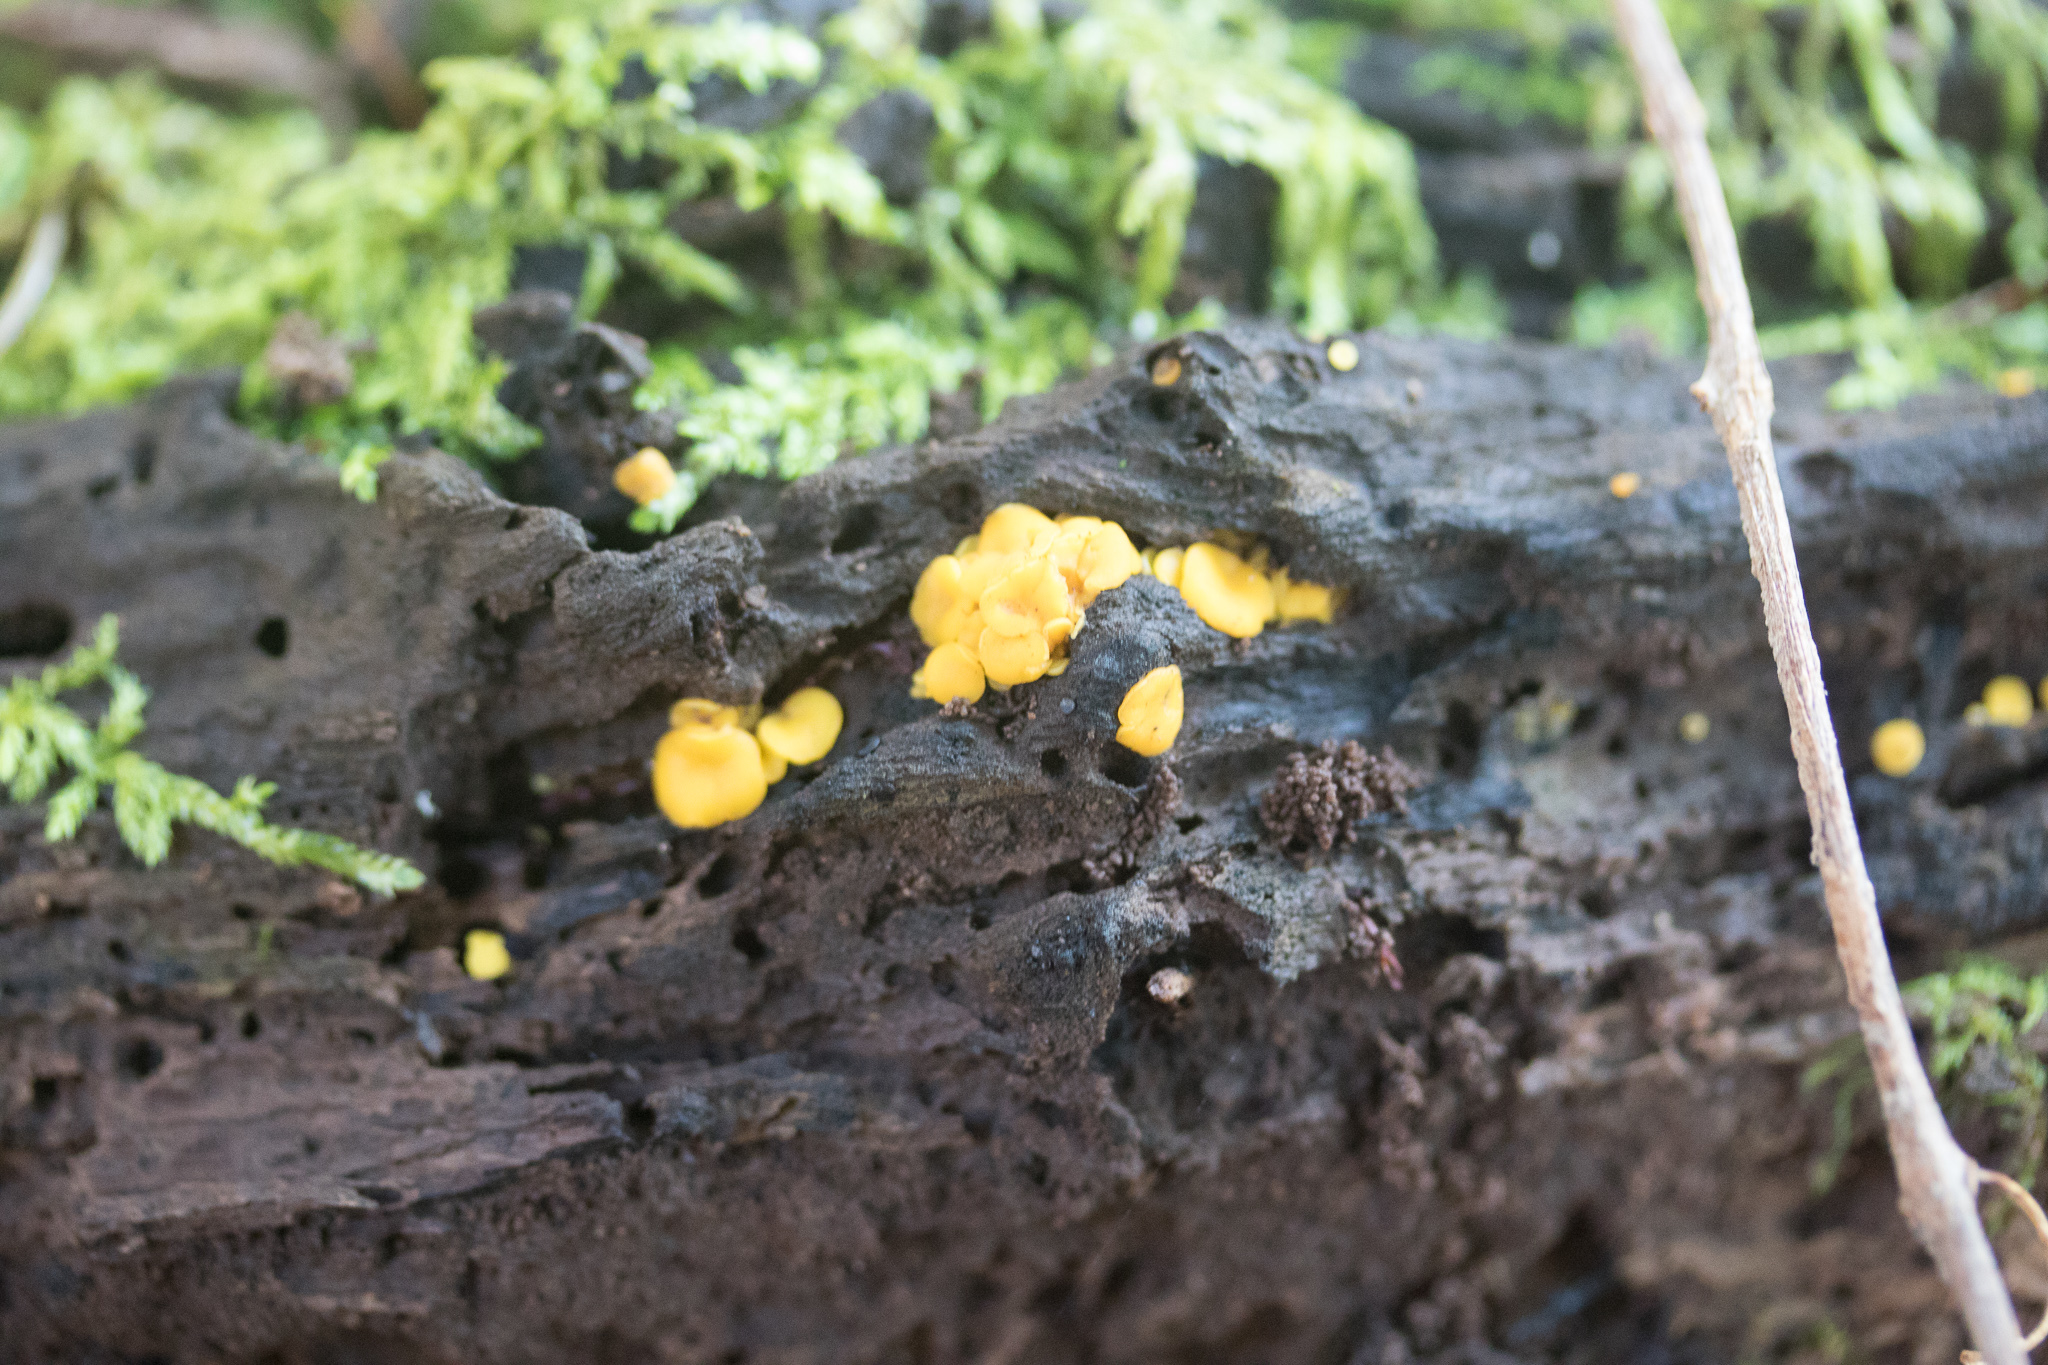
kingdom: Fungi
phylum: Ascomycota
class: Leotiomycetes
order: Helotiales
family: Pezizellaceae
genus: Calycina
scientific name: Calycina citrina
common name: Yellow fairy cups
